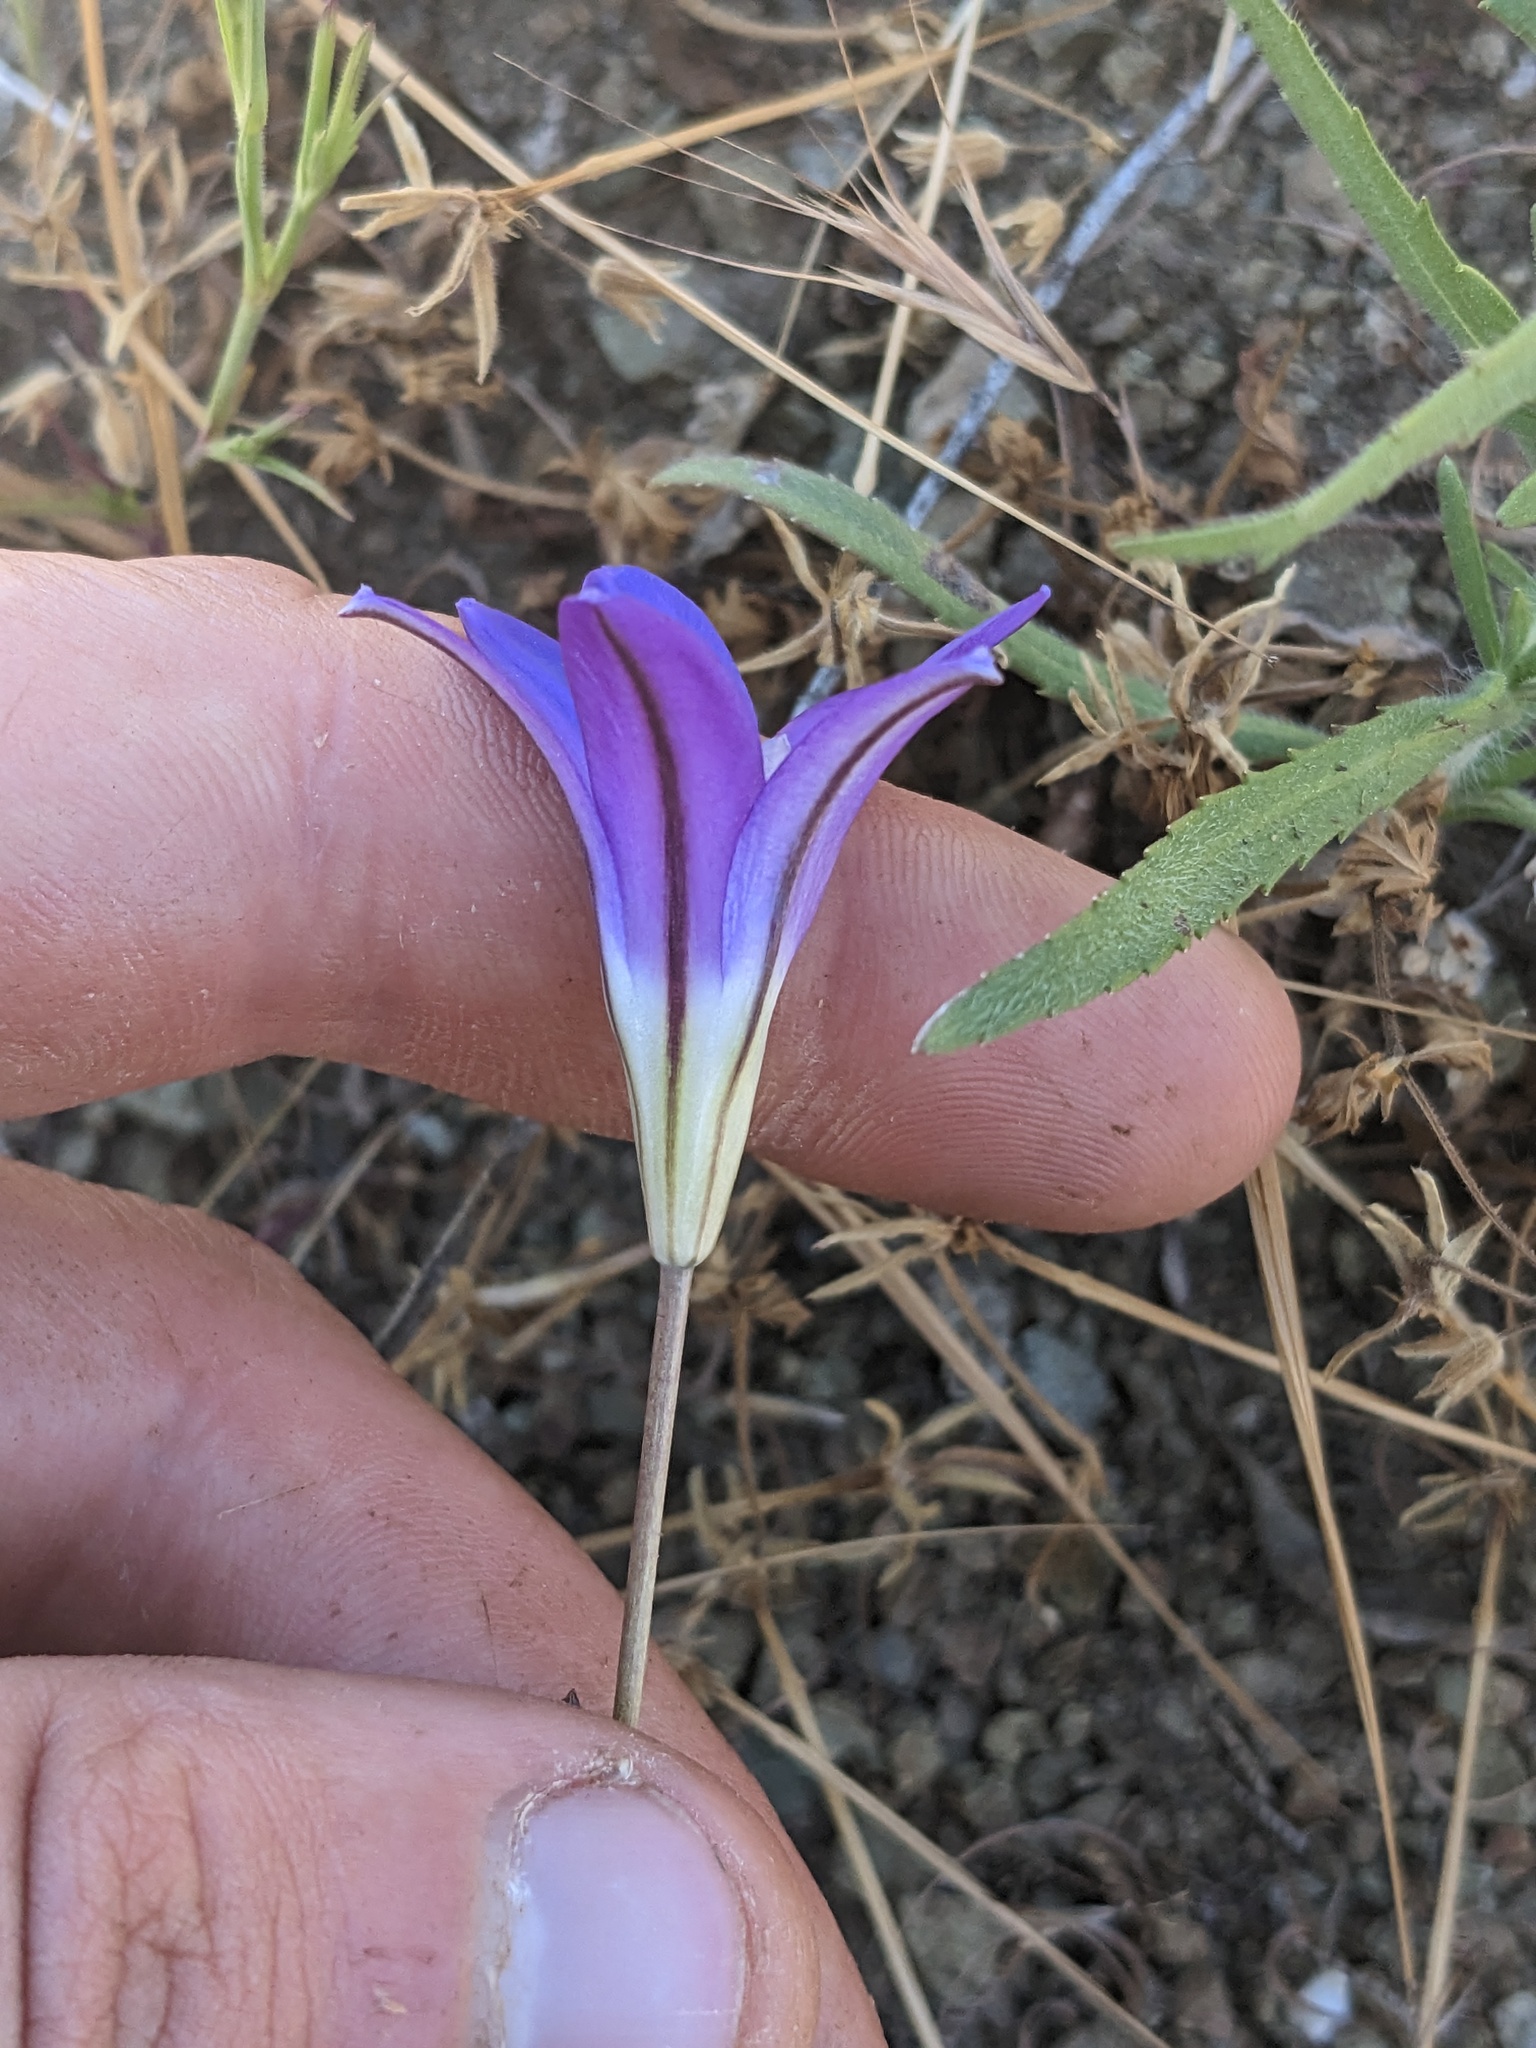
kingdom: Plantae
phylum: Tracheophyta
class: Liliopsida
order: Asparagales
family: Asparagaceae
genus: Brodiaea
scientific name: Brodiaea elegans
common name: Elegant cluster-lily
